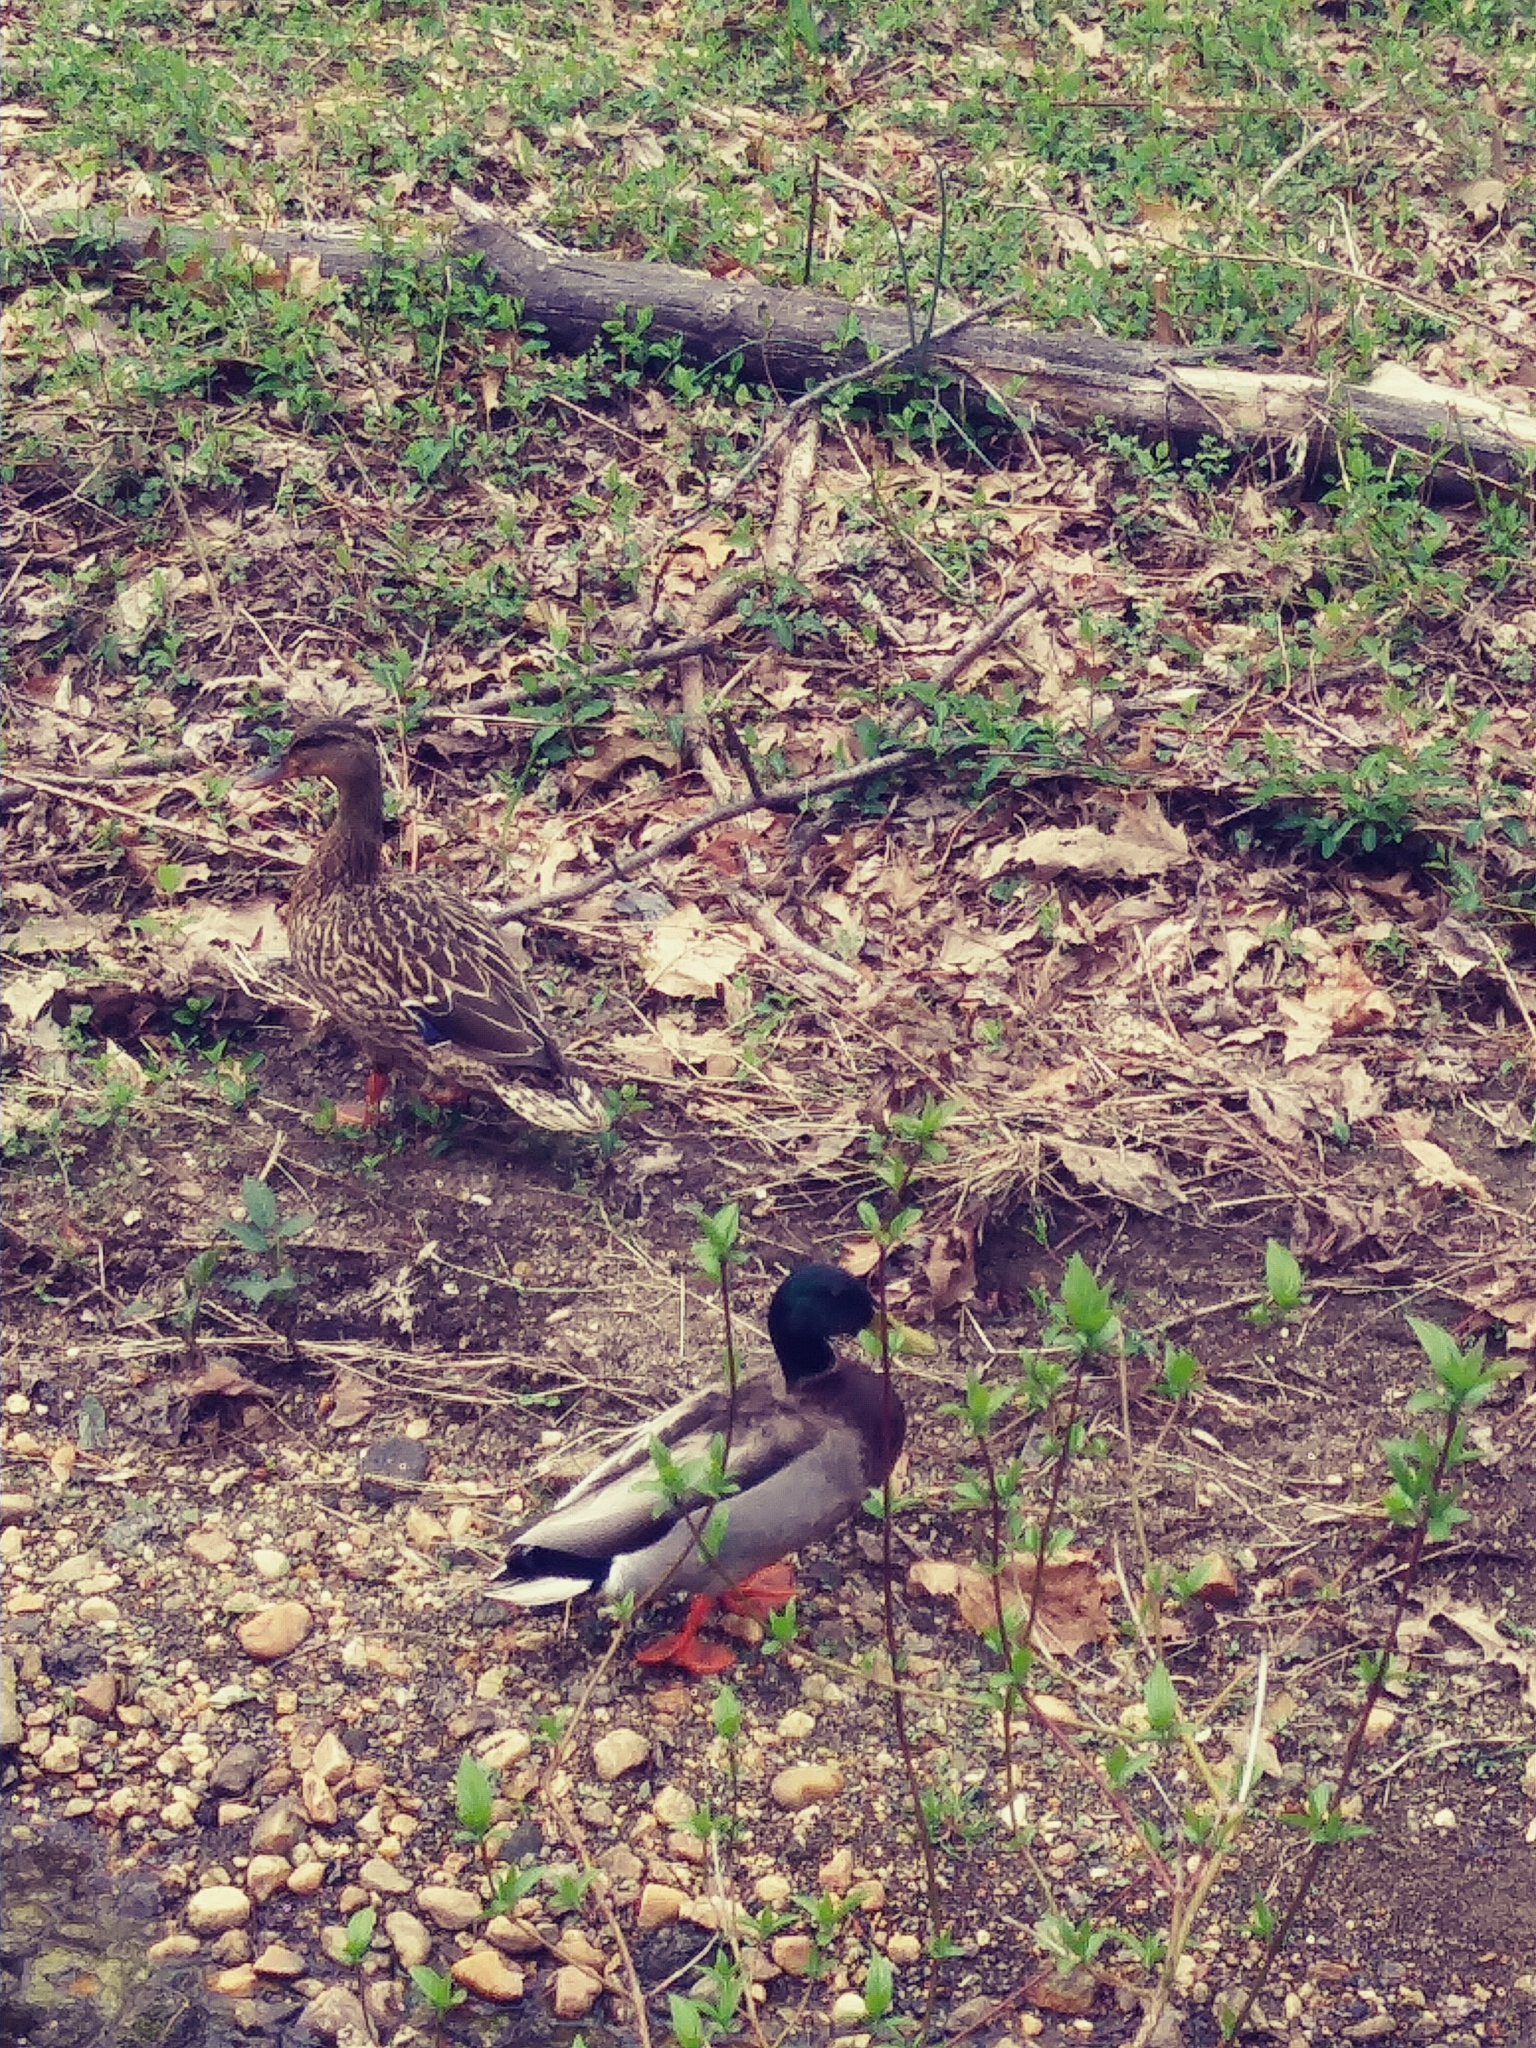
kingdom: Animalia
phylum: Chordata
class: Aves
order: Anseriformes
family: Anatidae
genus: Anas
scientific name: Anas platyrhynchos
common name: Mallard
